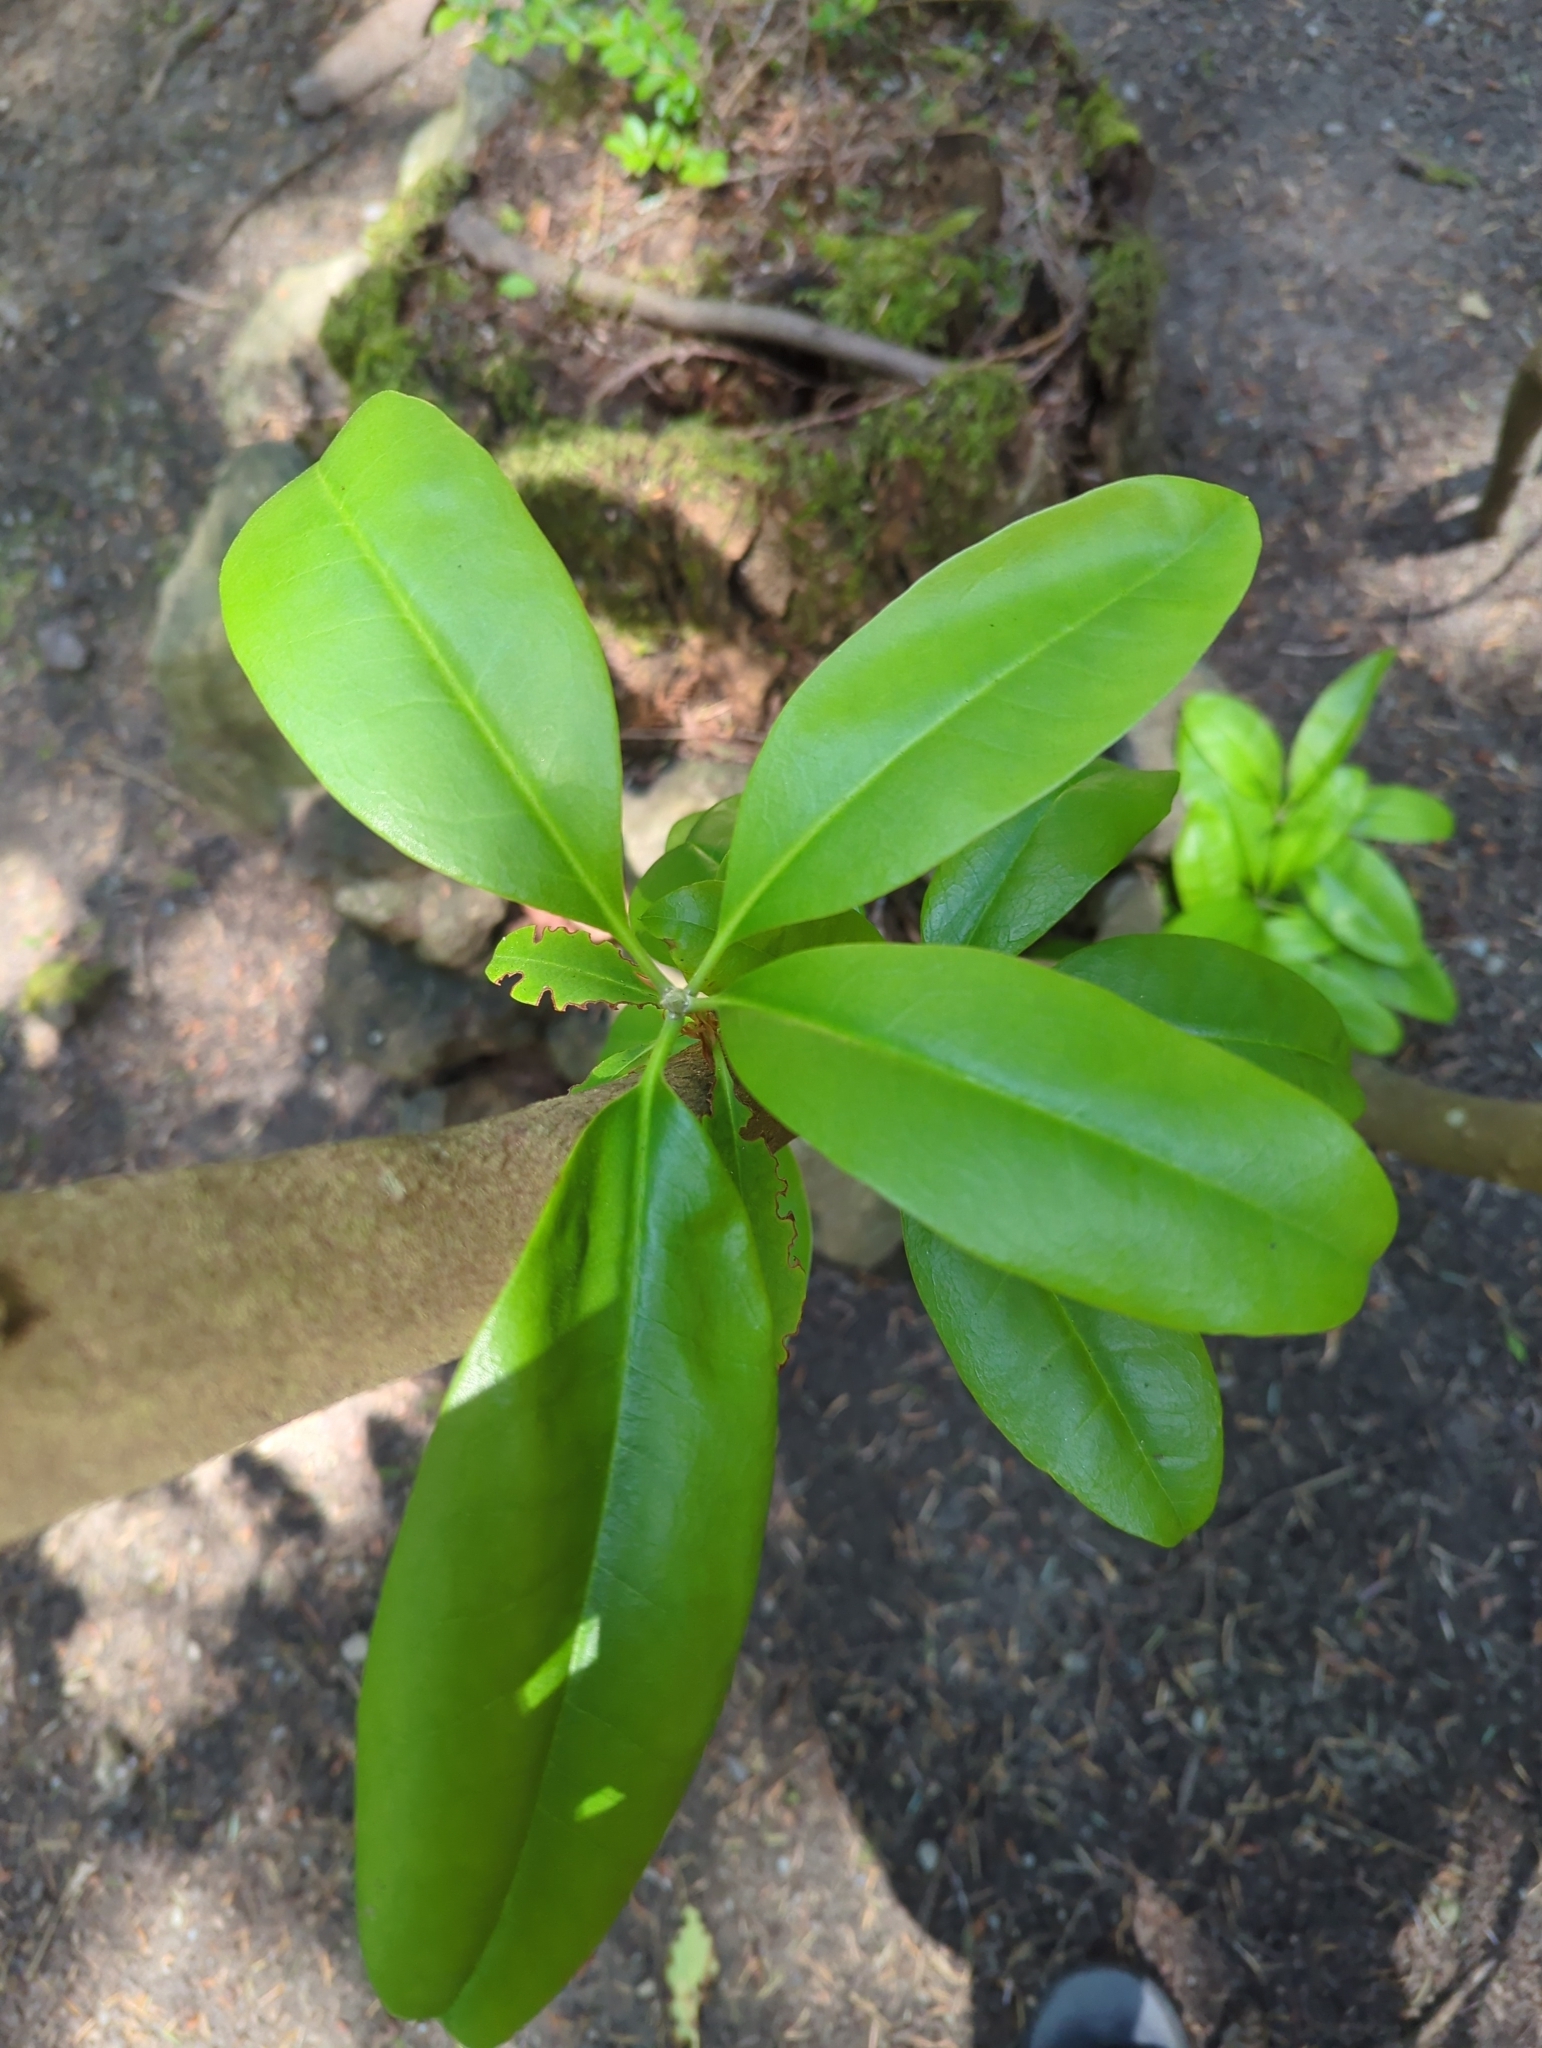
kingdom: Plantae
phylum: Tracheophyta
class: Magnoliopsida
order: Ericales
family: Ericaceae
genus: Rhododendron
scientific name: Rhododendron macrophyllum
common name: California rose bay
